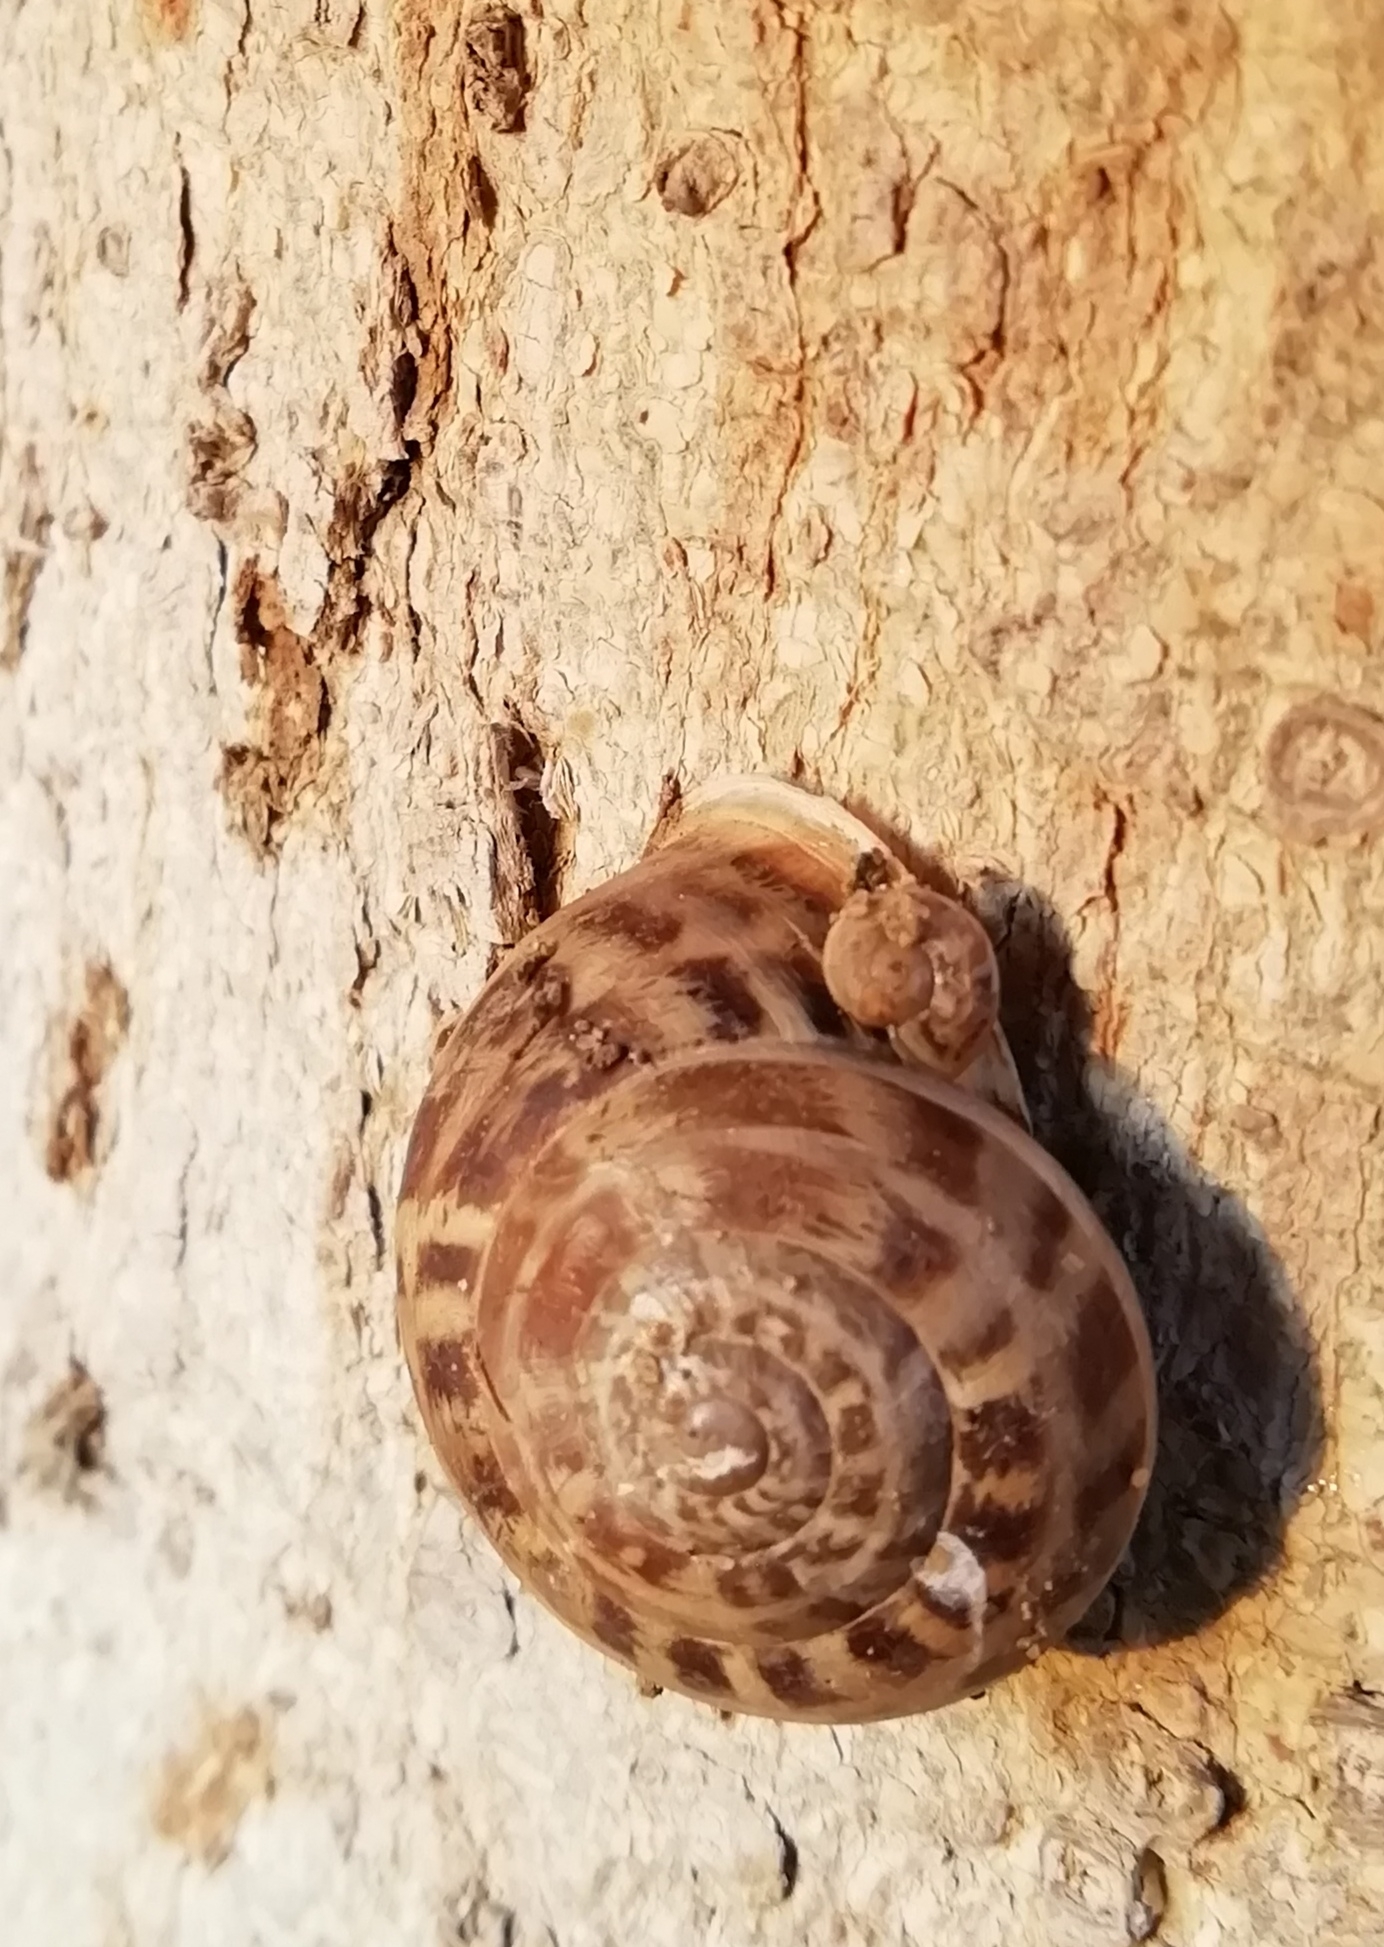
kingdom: Animalia
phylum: Mollusca
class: Gastropoda
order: Stylommatophora
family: Helicidae
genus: Eobania
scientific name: Eobania vermiculata
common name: Chocolateband snail
